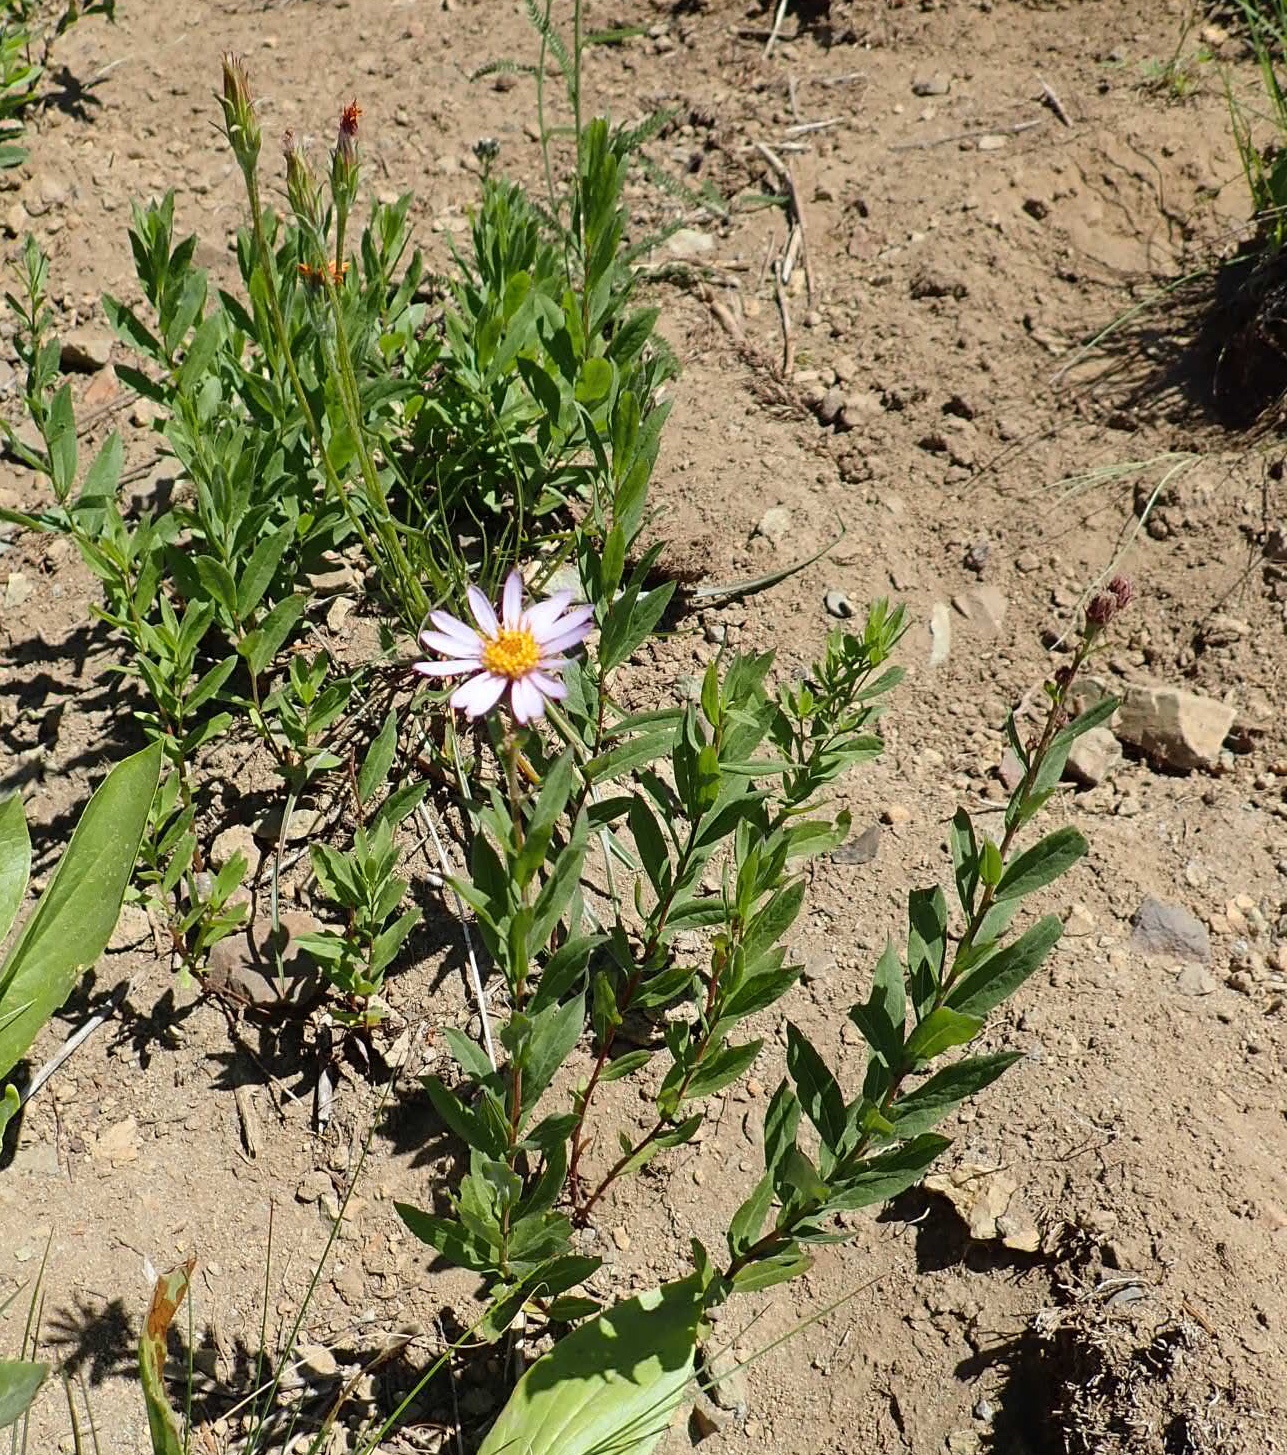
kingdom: Plantae
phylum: Tracheophyta
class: Magnoliopsida
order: Asterales
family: Asteraceae
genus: Eucephalus
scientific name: Eucephalus engelmannii
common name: Engelmann's aster
